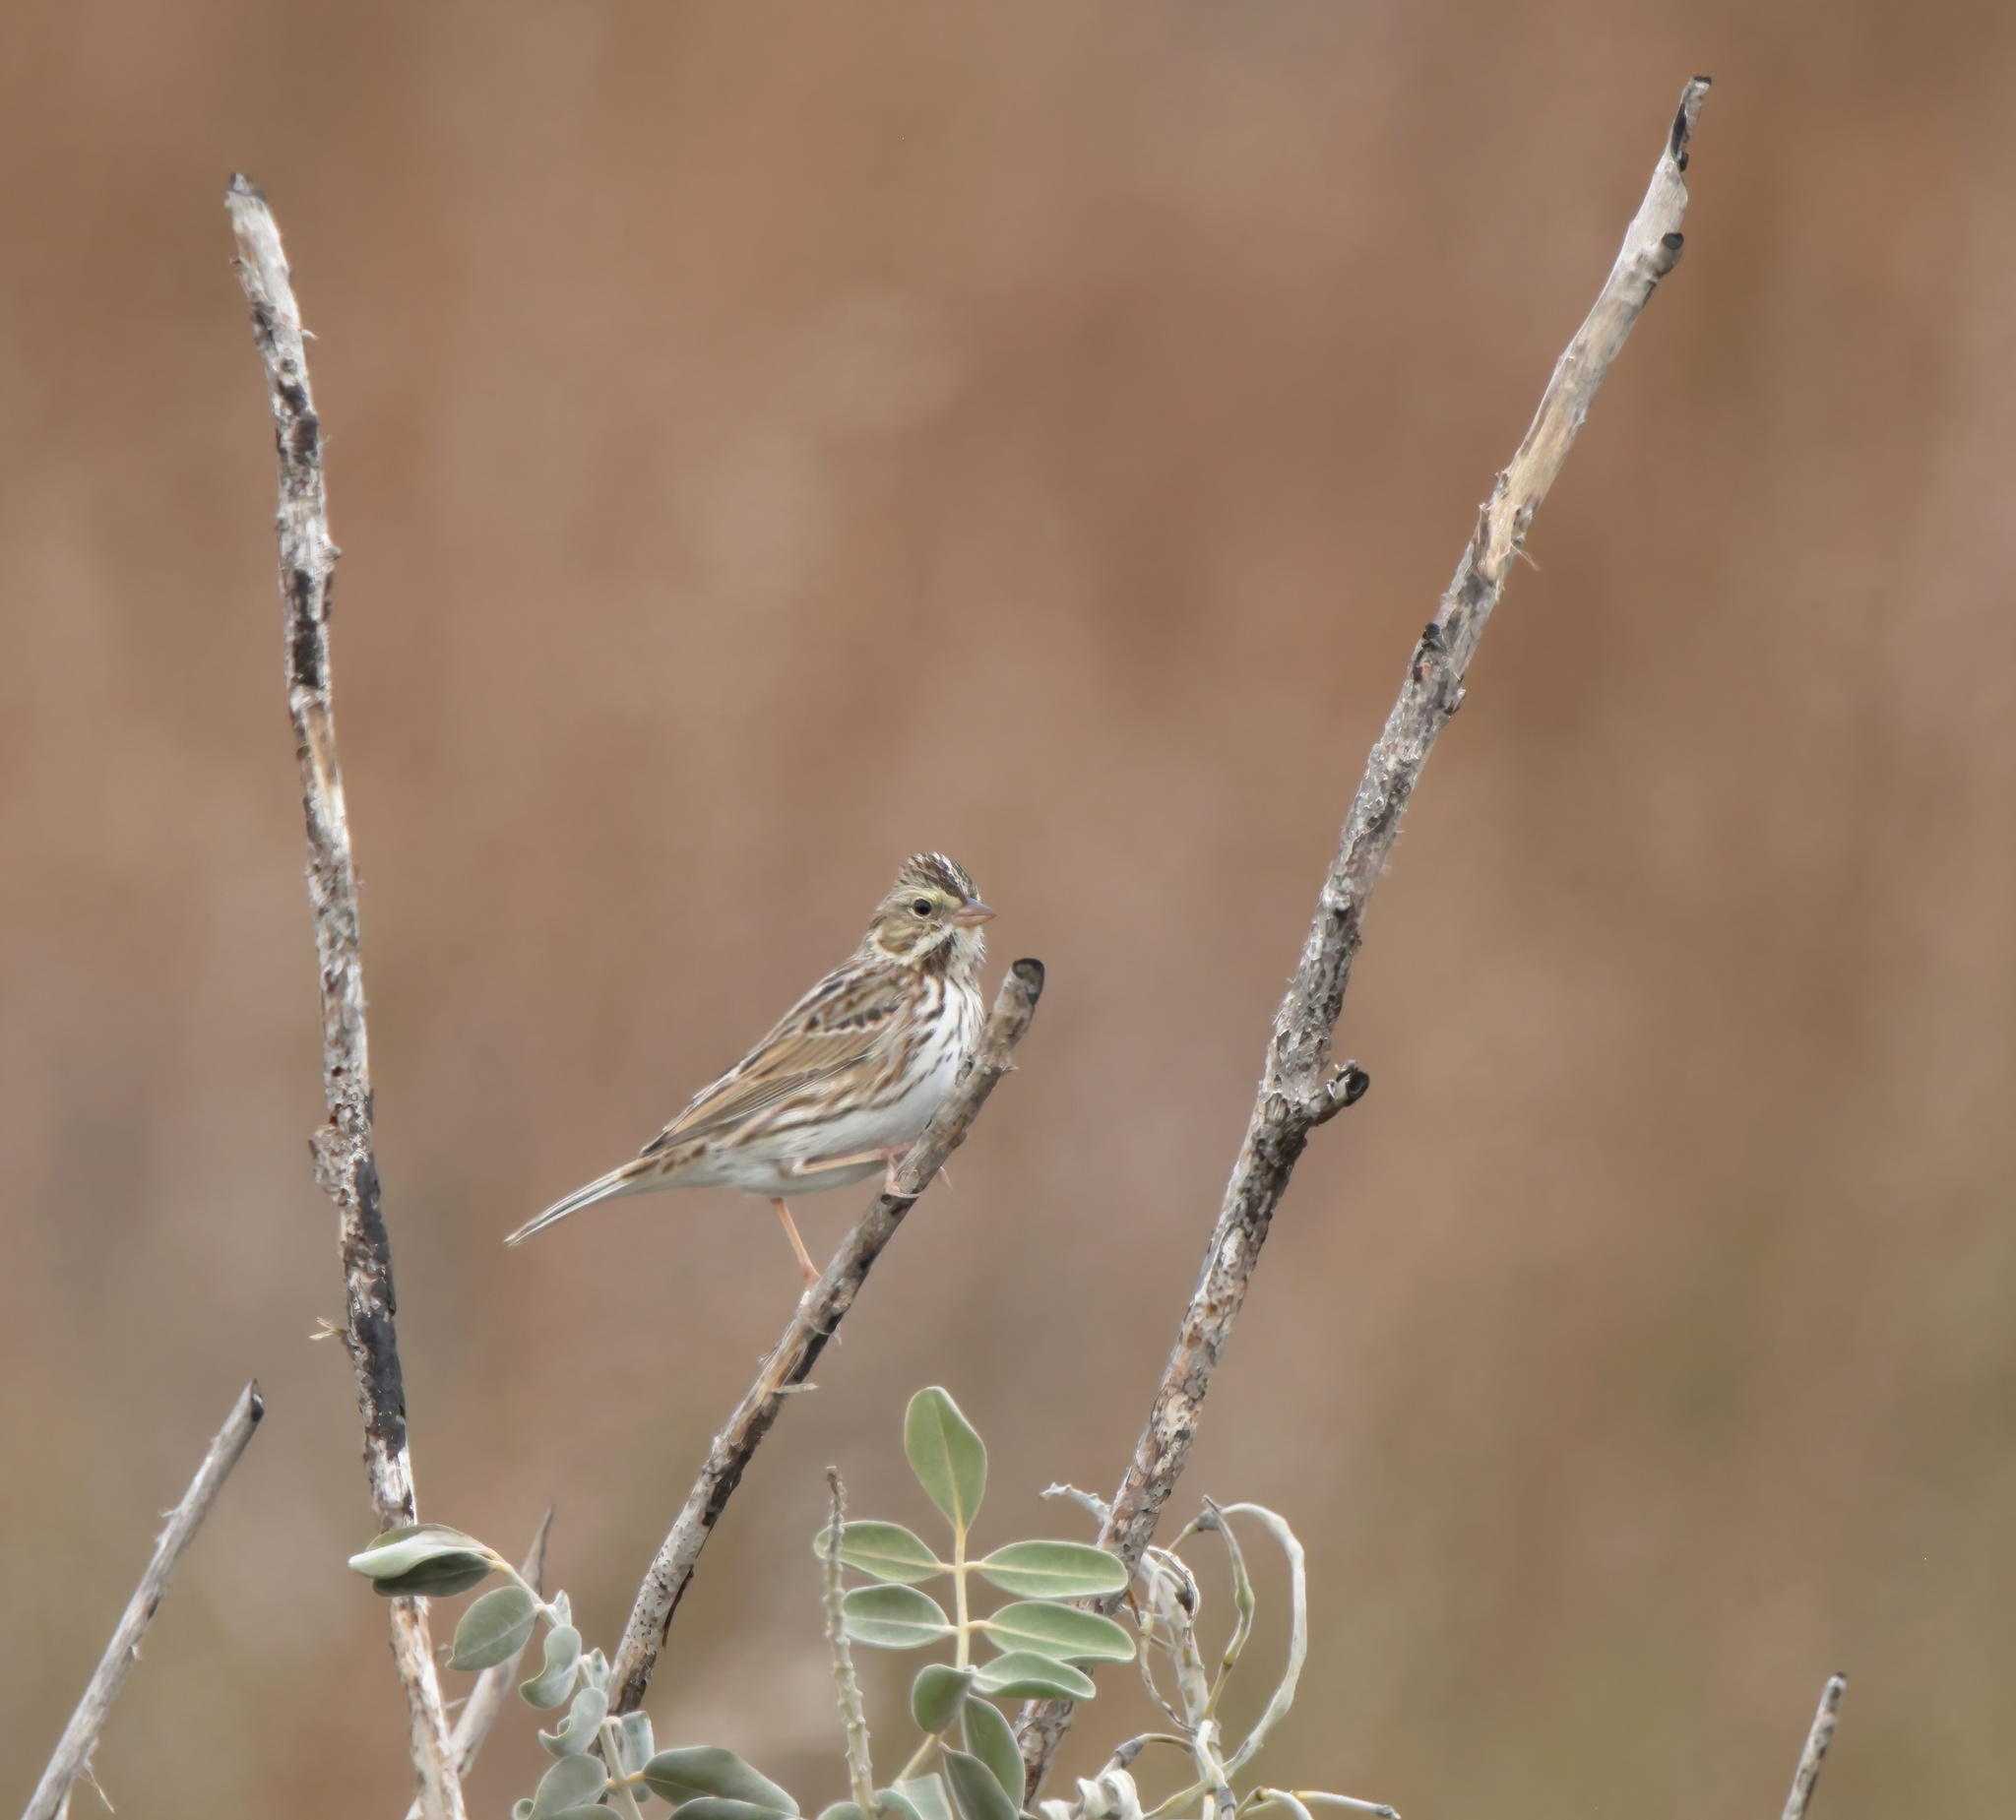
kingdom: Animalia
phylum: Chordata
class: Aves
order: Passeriformes
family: Passerellidae
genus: Passerculus
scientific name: Passerculus sandwichensis
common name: Savannah sparrow
